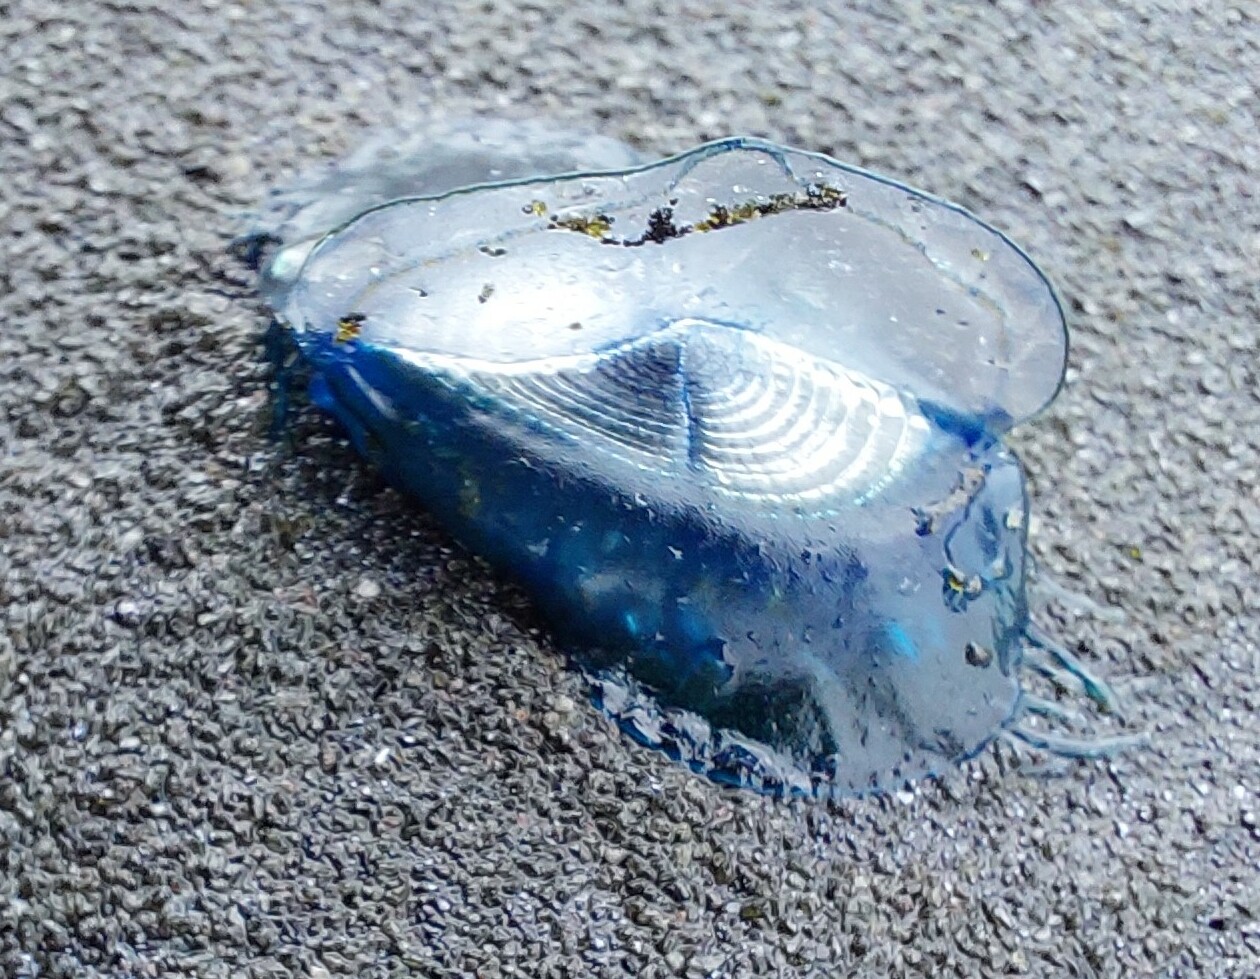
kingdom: Animalia
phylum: Cnidaria
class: Hydrozoa
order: Anthoathecata
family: Porpitidae
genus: Velella
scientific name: Velella velella
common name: By-the-wind-sailor
